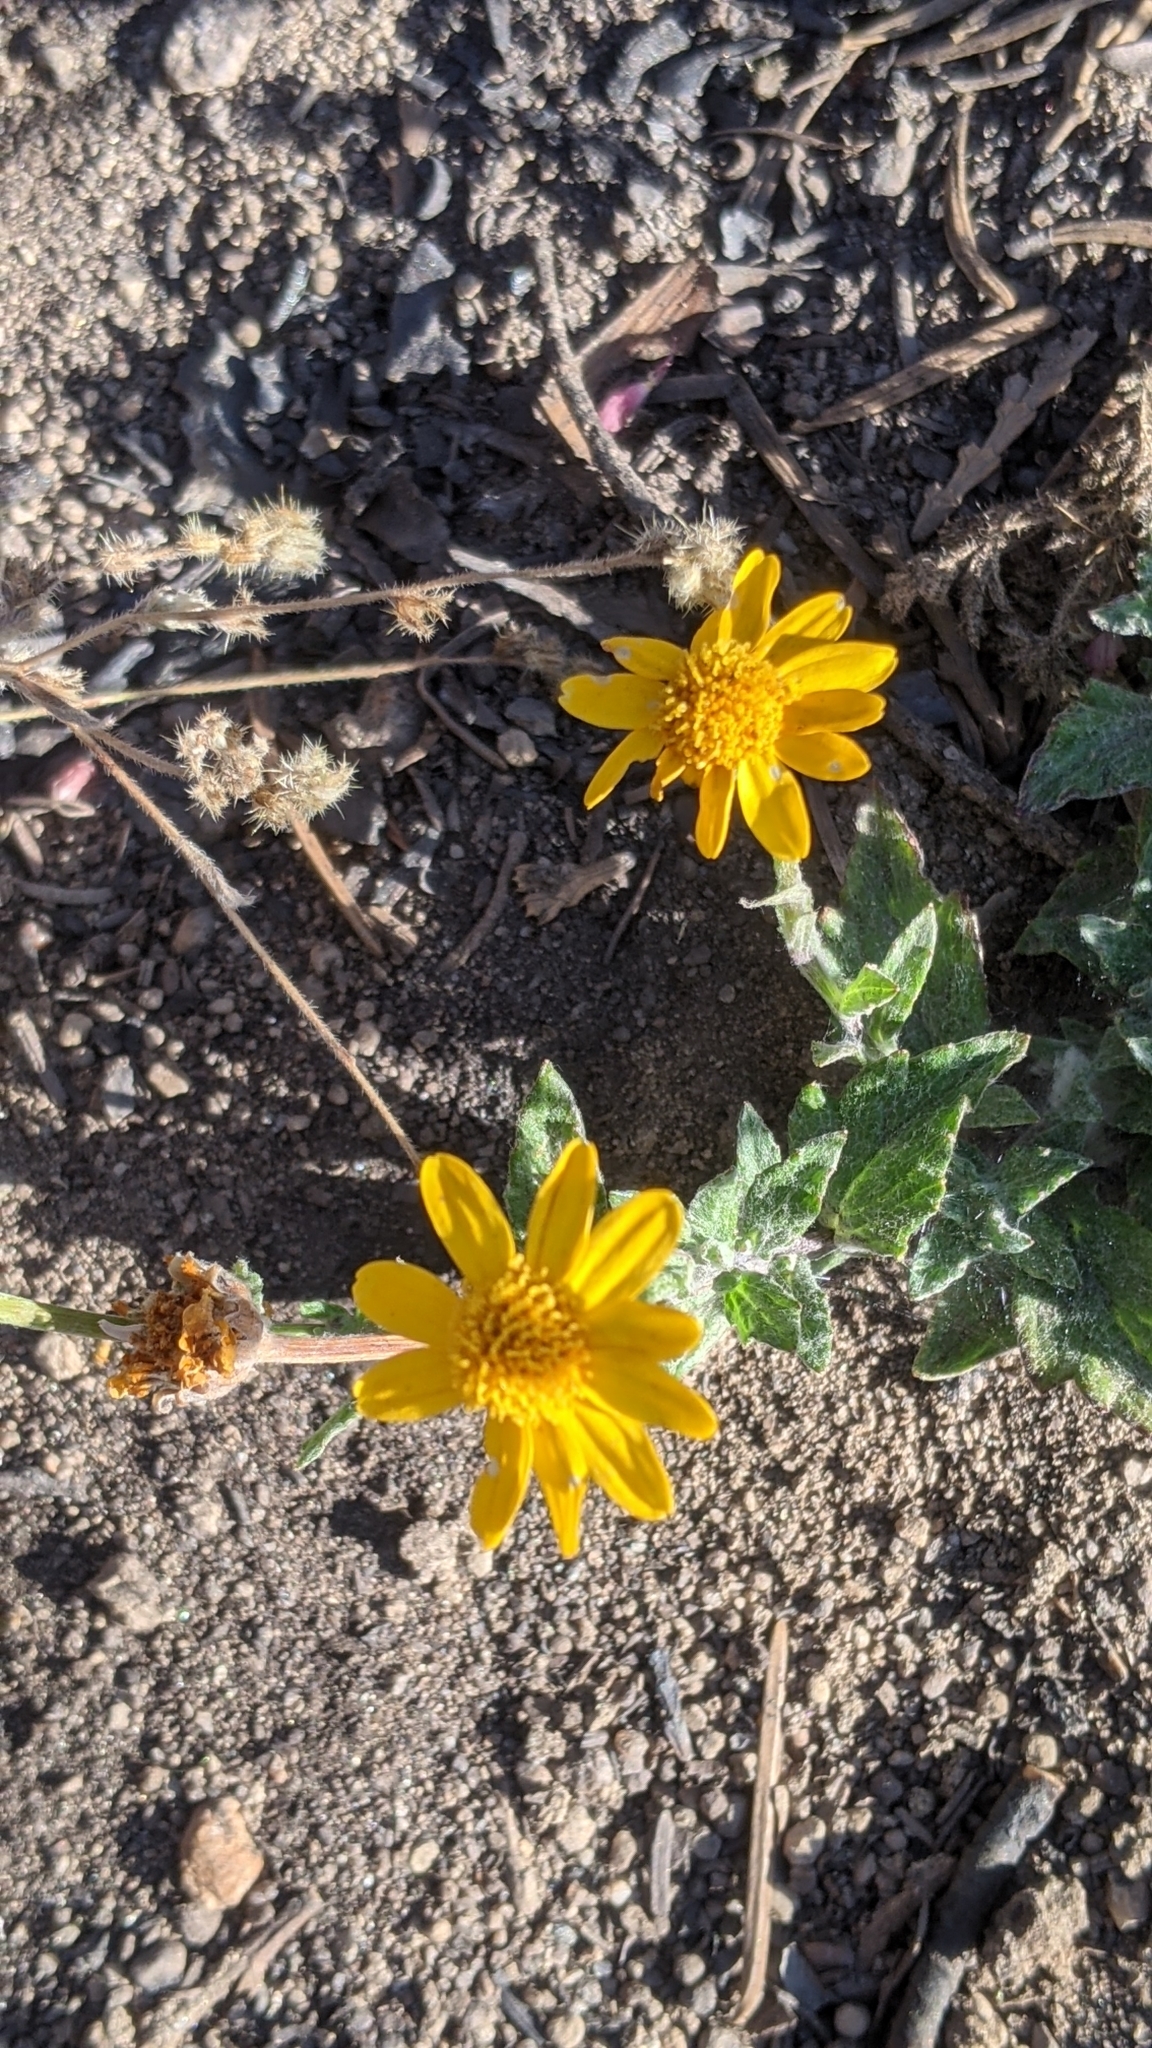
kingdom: Plantae
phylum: Tracheophyta
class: Magnoliopsida
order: Asterales
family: Asteraceae
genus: Eriophyllum
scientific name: Eriophyllum lanatum
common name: Common woolly-sunflower
